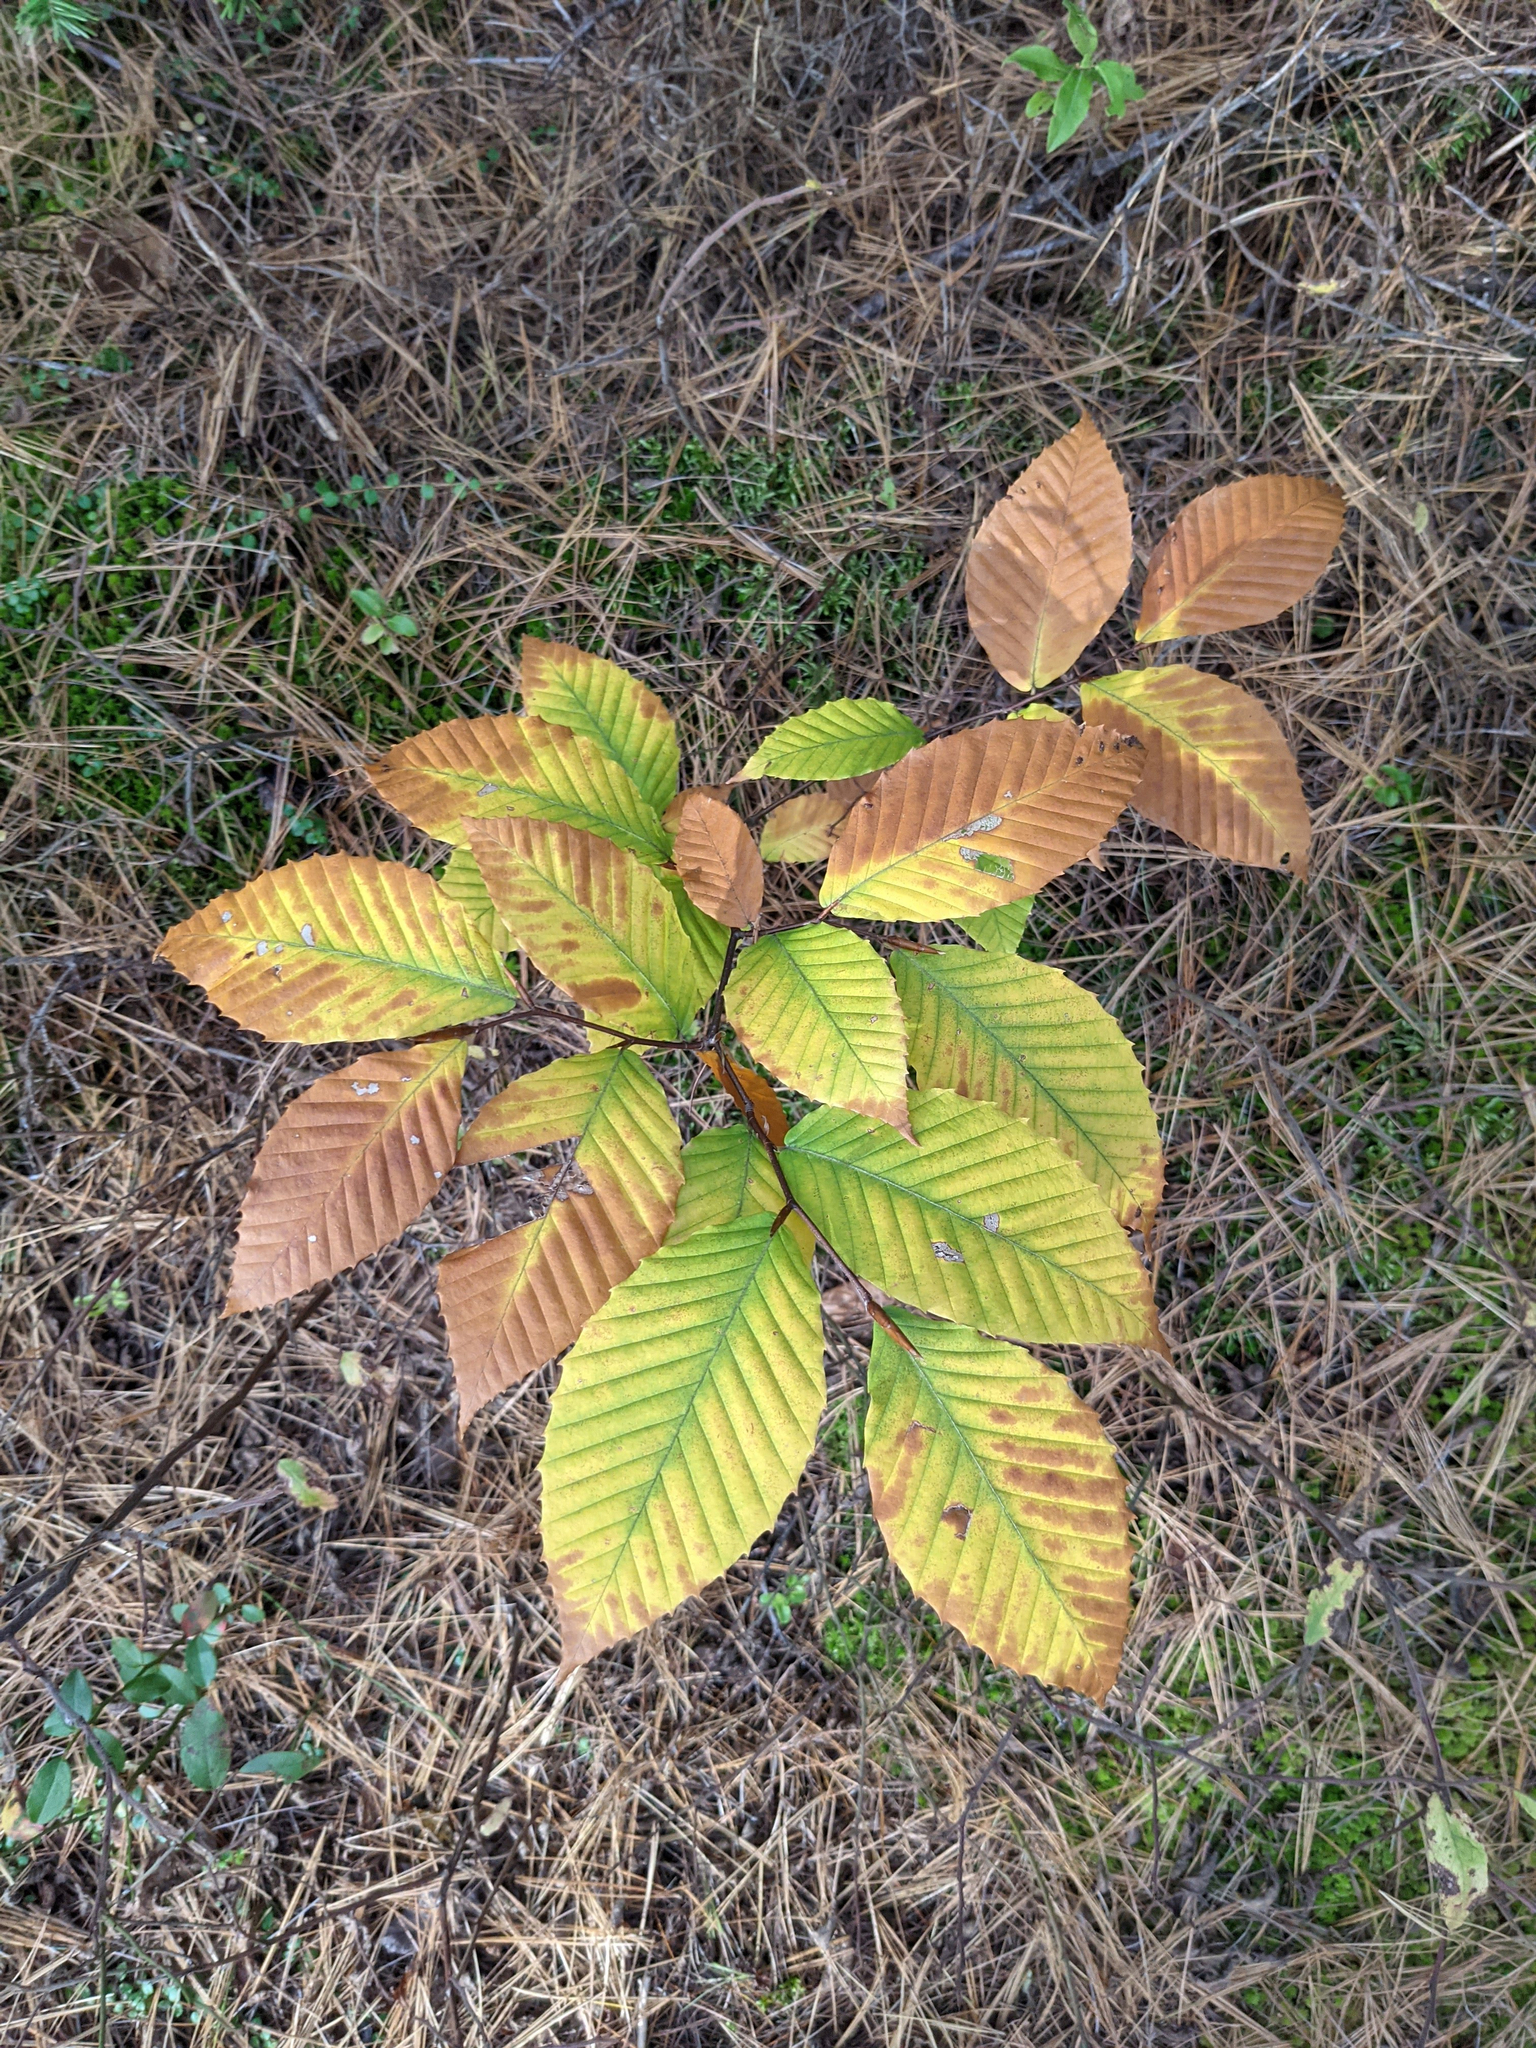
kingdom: Plantae
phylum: Tracheophyta
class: Magnoliopsida
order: Fagales
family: Fagaceae
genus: Fagus
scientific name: Fagus grandifolia
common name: American beech
